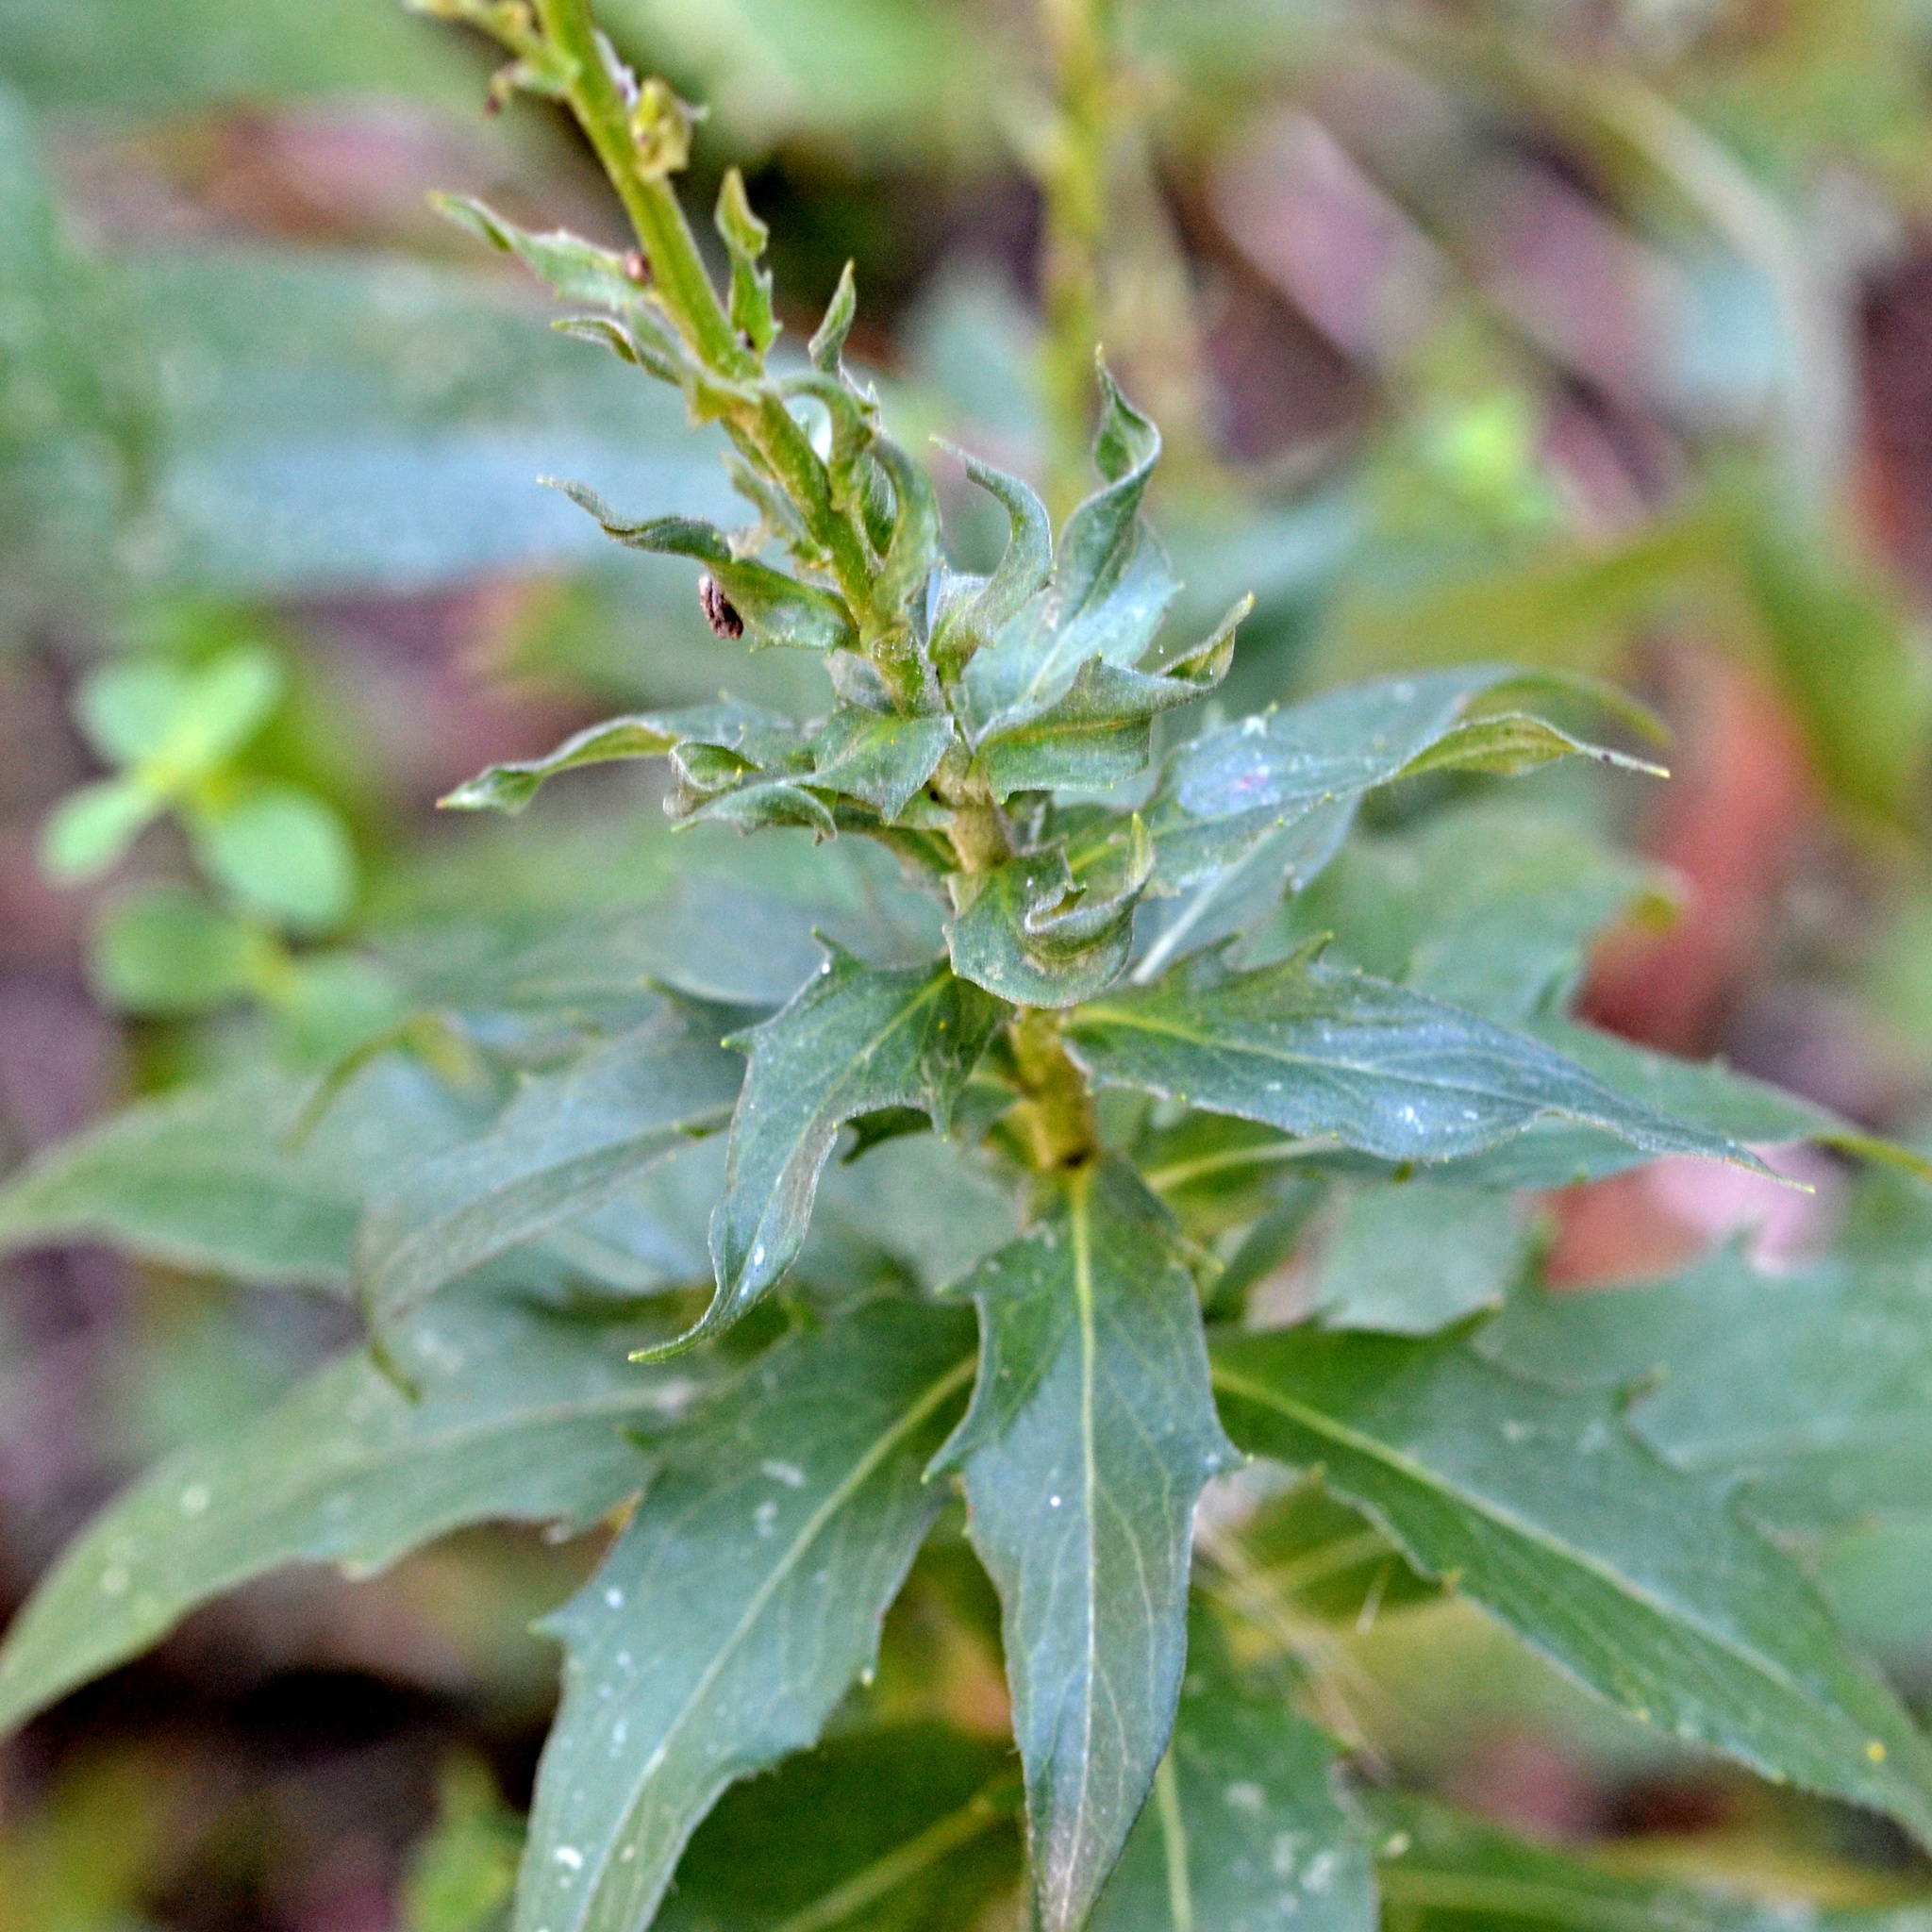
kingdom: Plantae
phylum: Tracheophyta
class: Magnoliopsida
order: Asterales
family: Asteraceae
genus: Hieracium
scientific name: Hieracium sabaudum
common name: New england hawkweed
